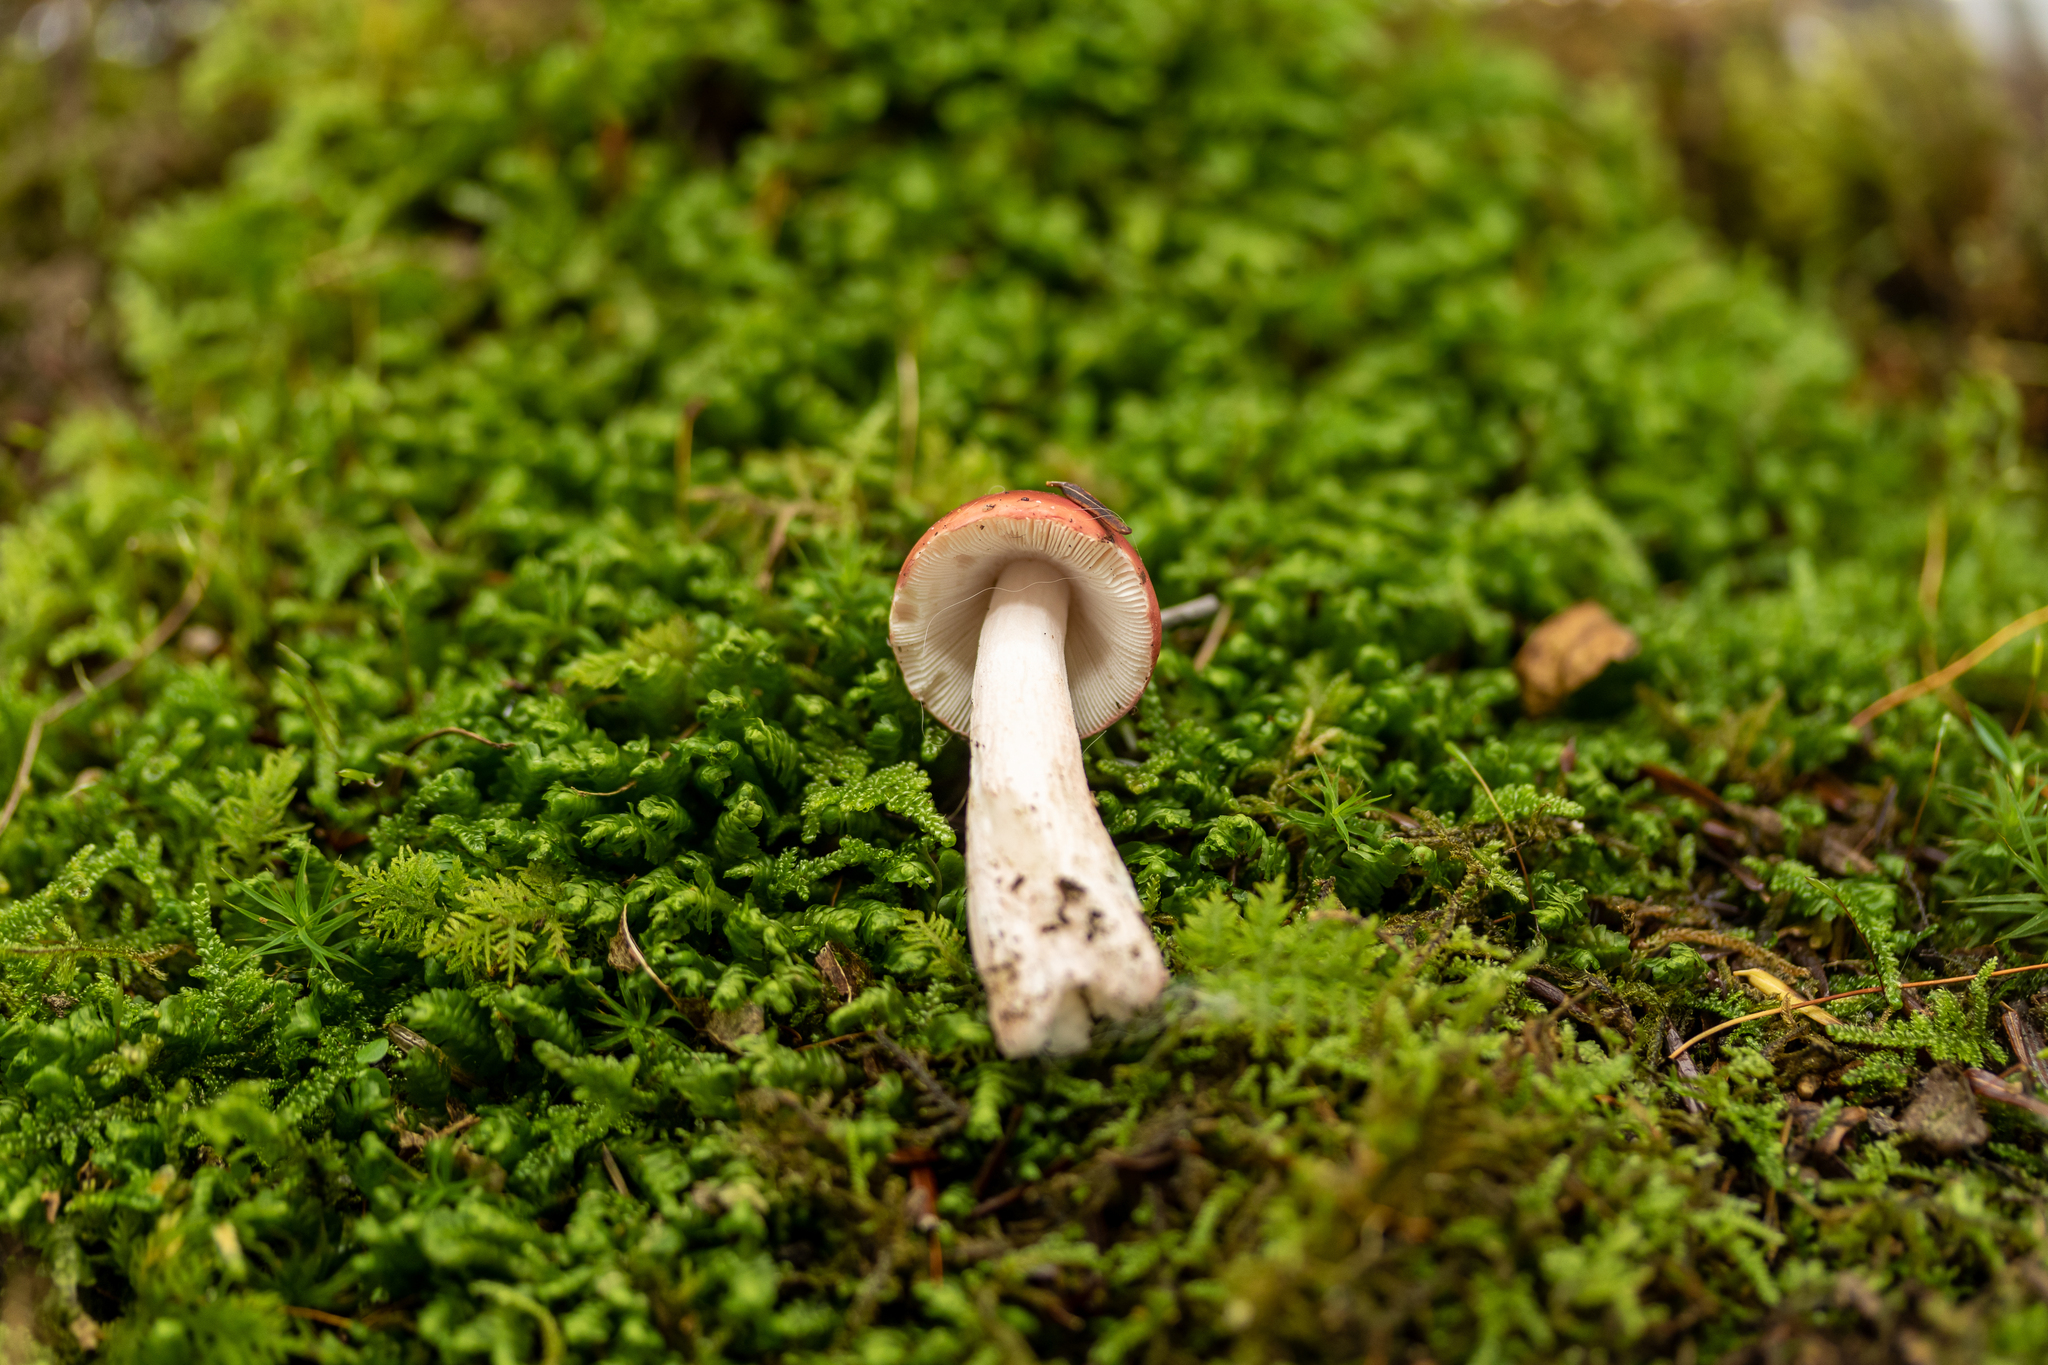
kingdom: Fungi
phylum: Basidiomycota
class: Agaricomycetes
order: Russulales
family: Russulaceae
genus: Russula
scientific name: Russula peckii
